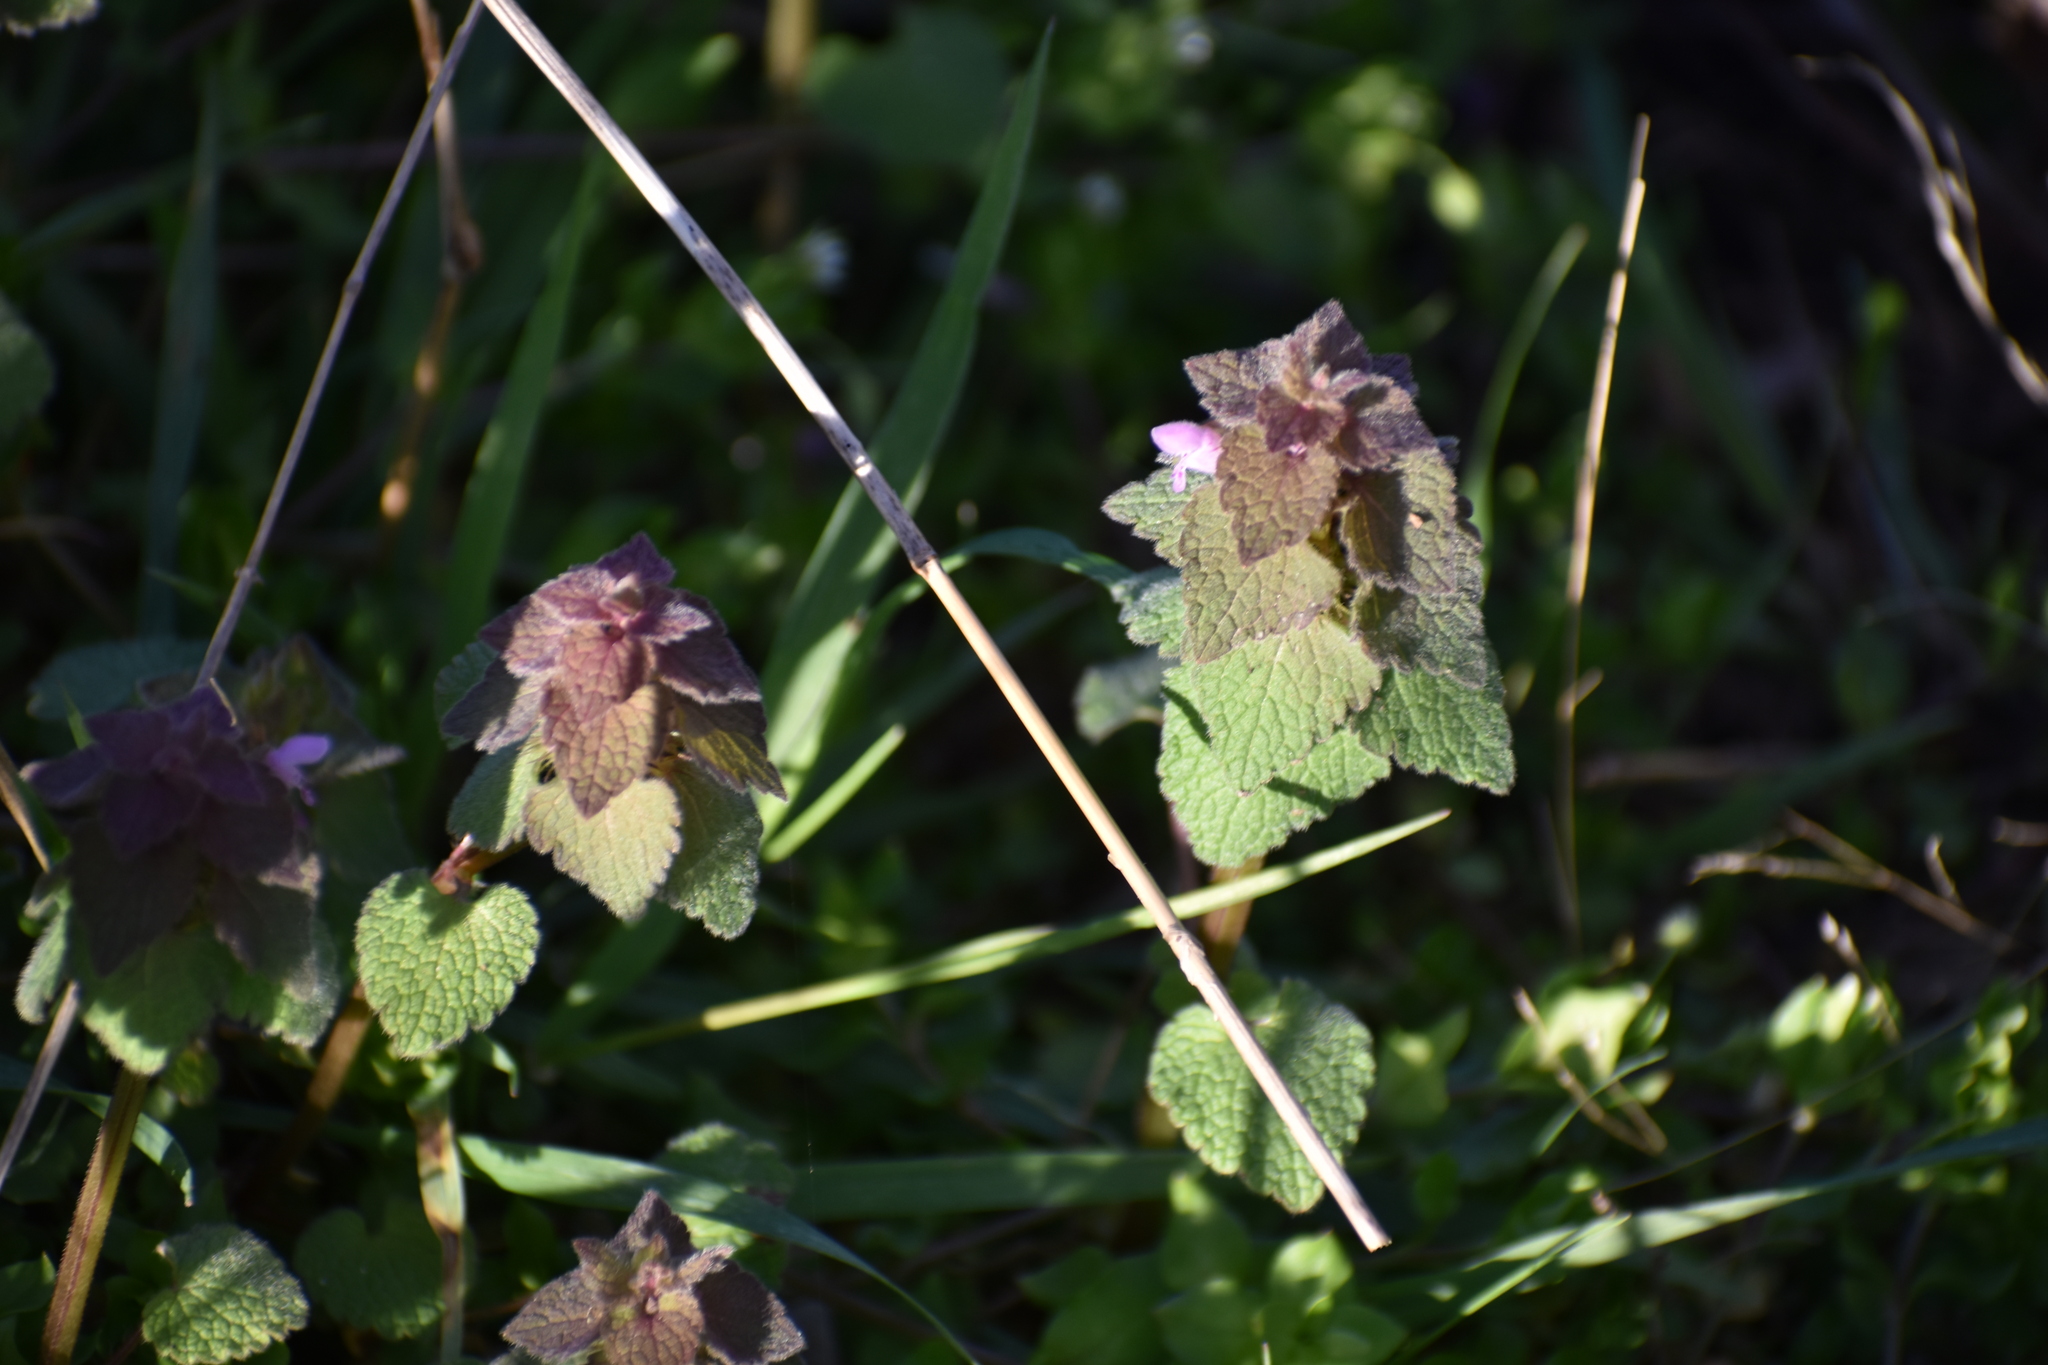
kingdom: Plantae
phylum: Tracheophyta
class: Magnoliopsida
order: Lamiales
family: Lamiaceae
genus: Lamium
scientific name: Lamium purpureum
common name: Red dead-nettle
